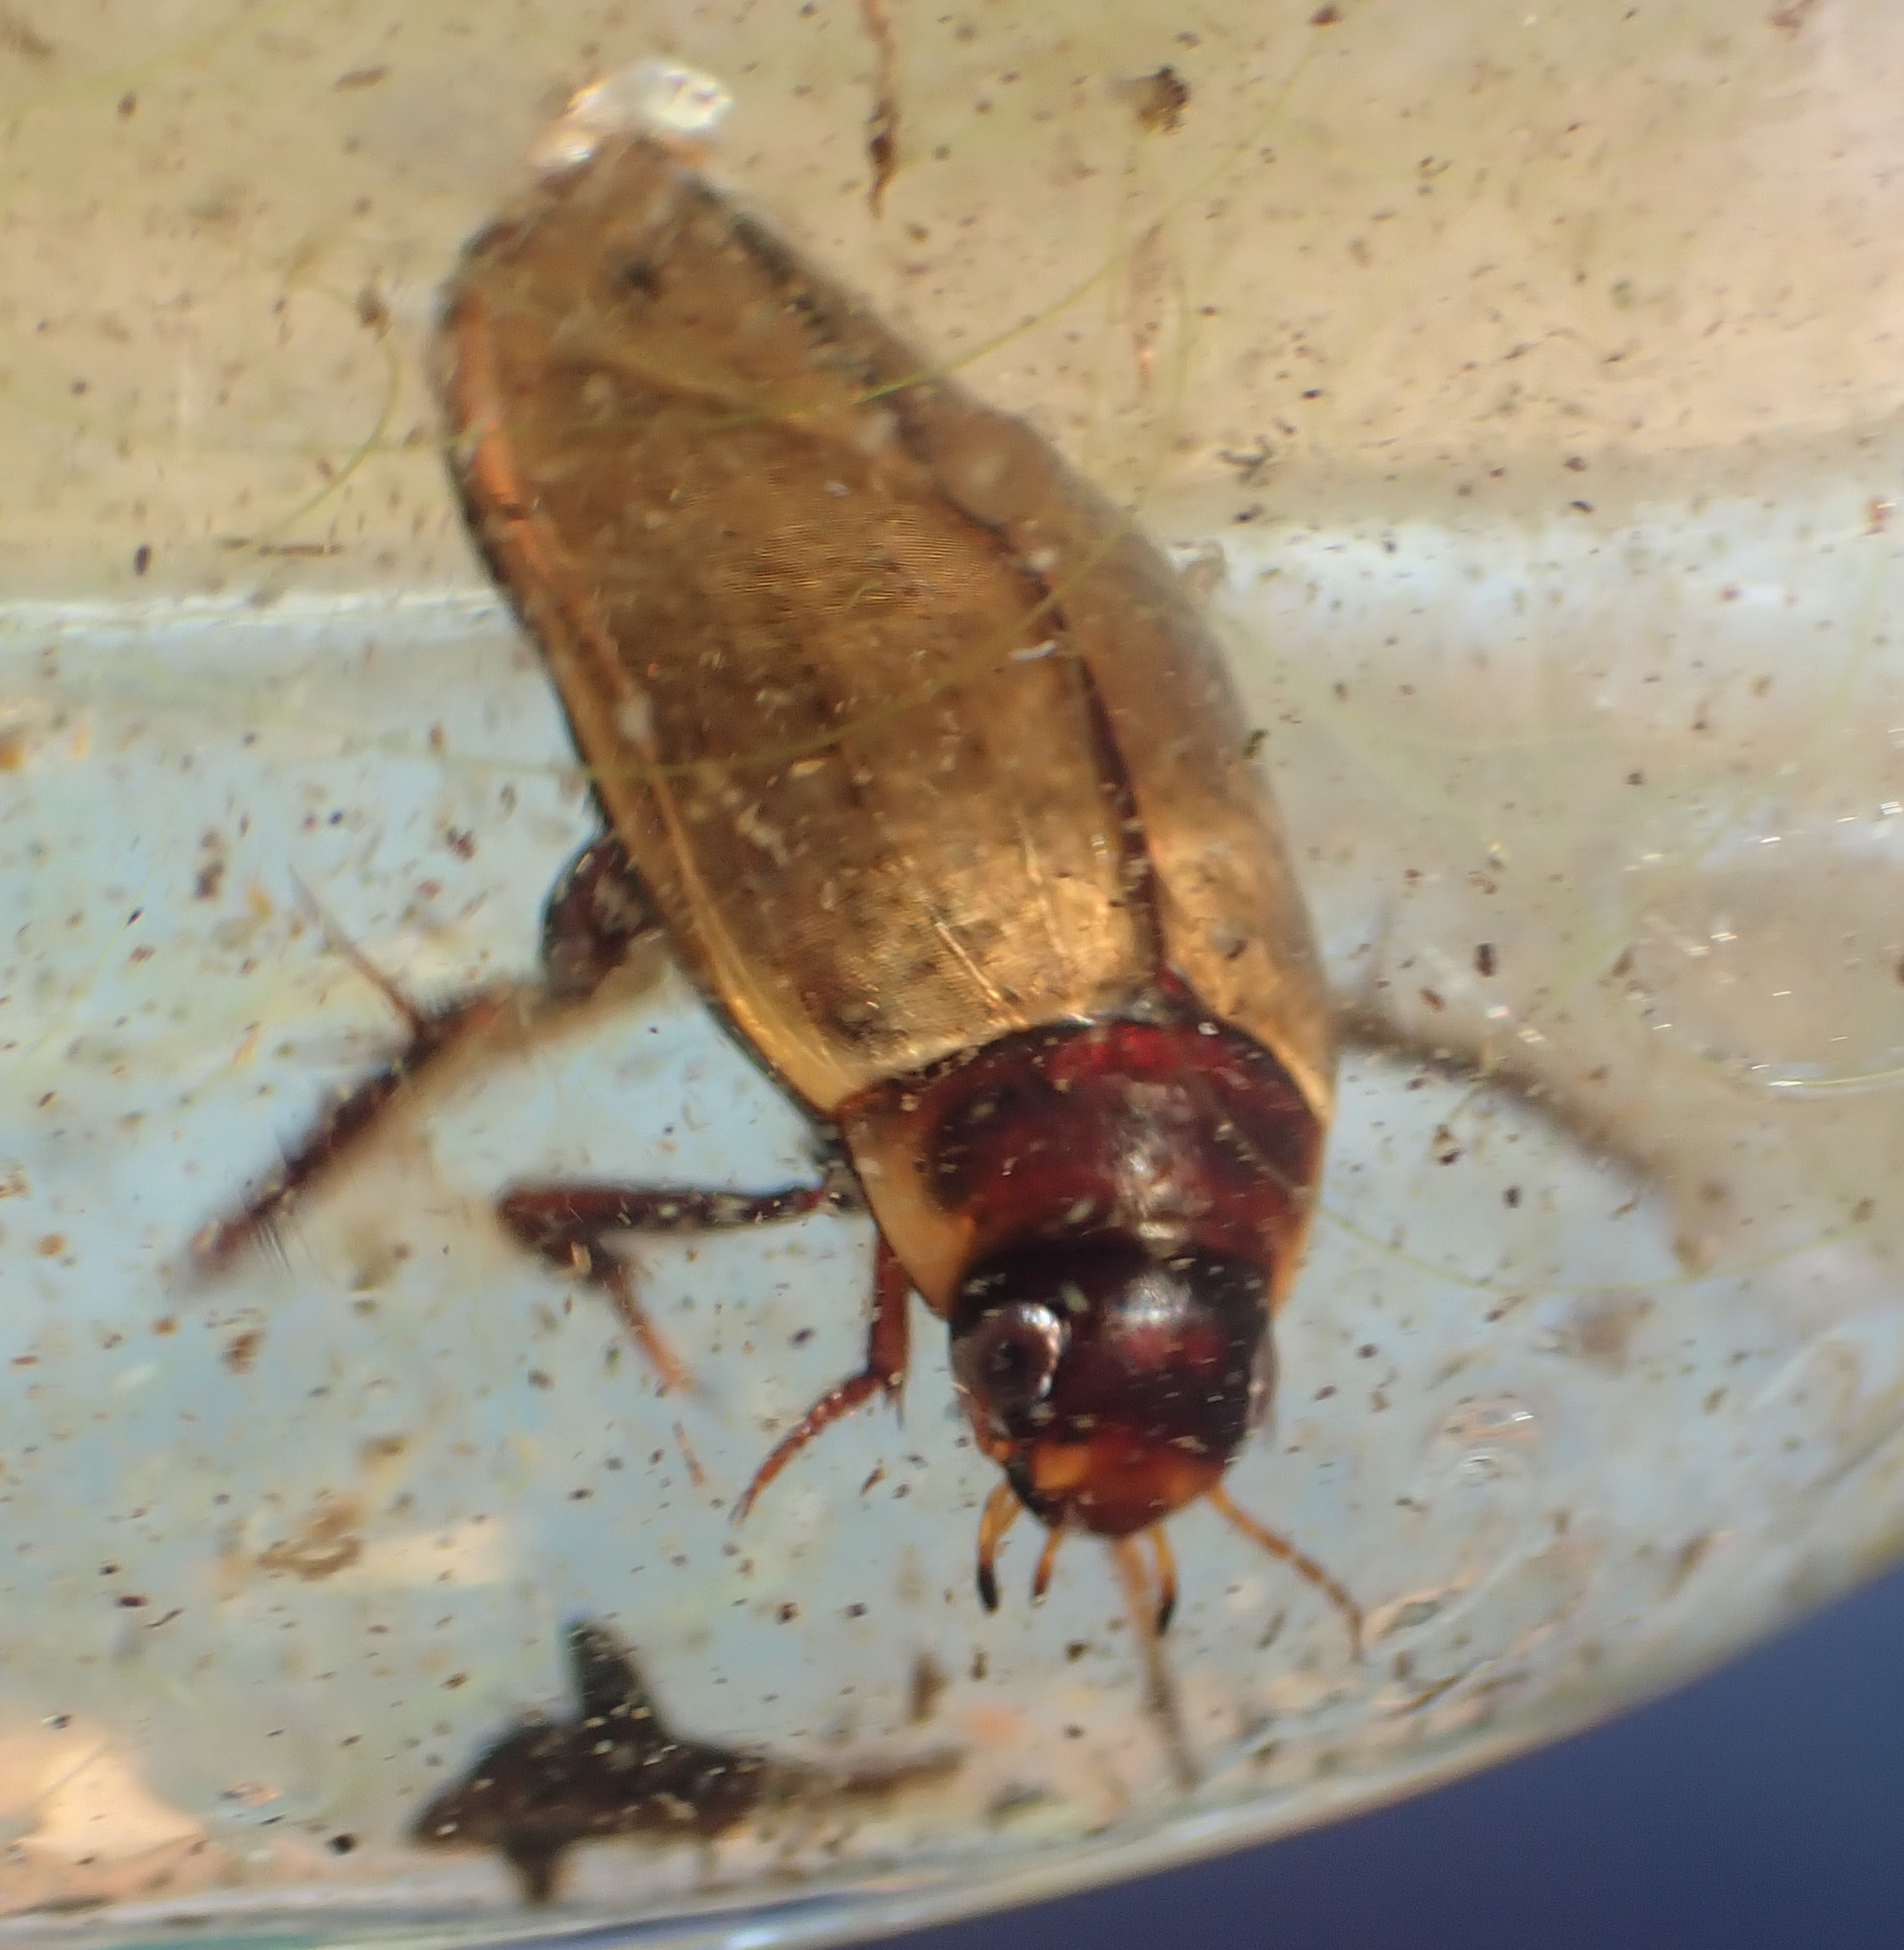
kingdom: Animalia
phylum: Arthropoda
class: Insecta
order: Coleoptera
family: Dytiscidae
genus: Colymbetes
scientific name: Colymbetes fuscus
